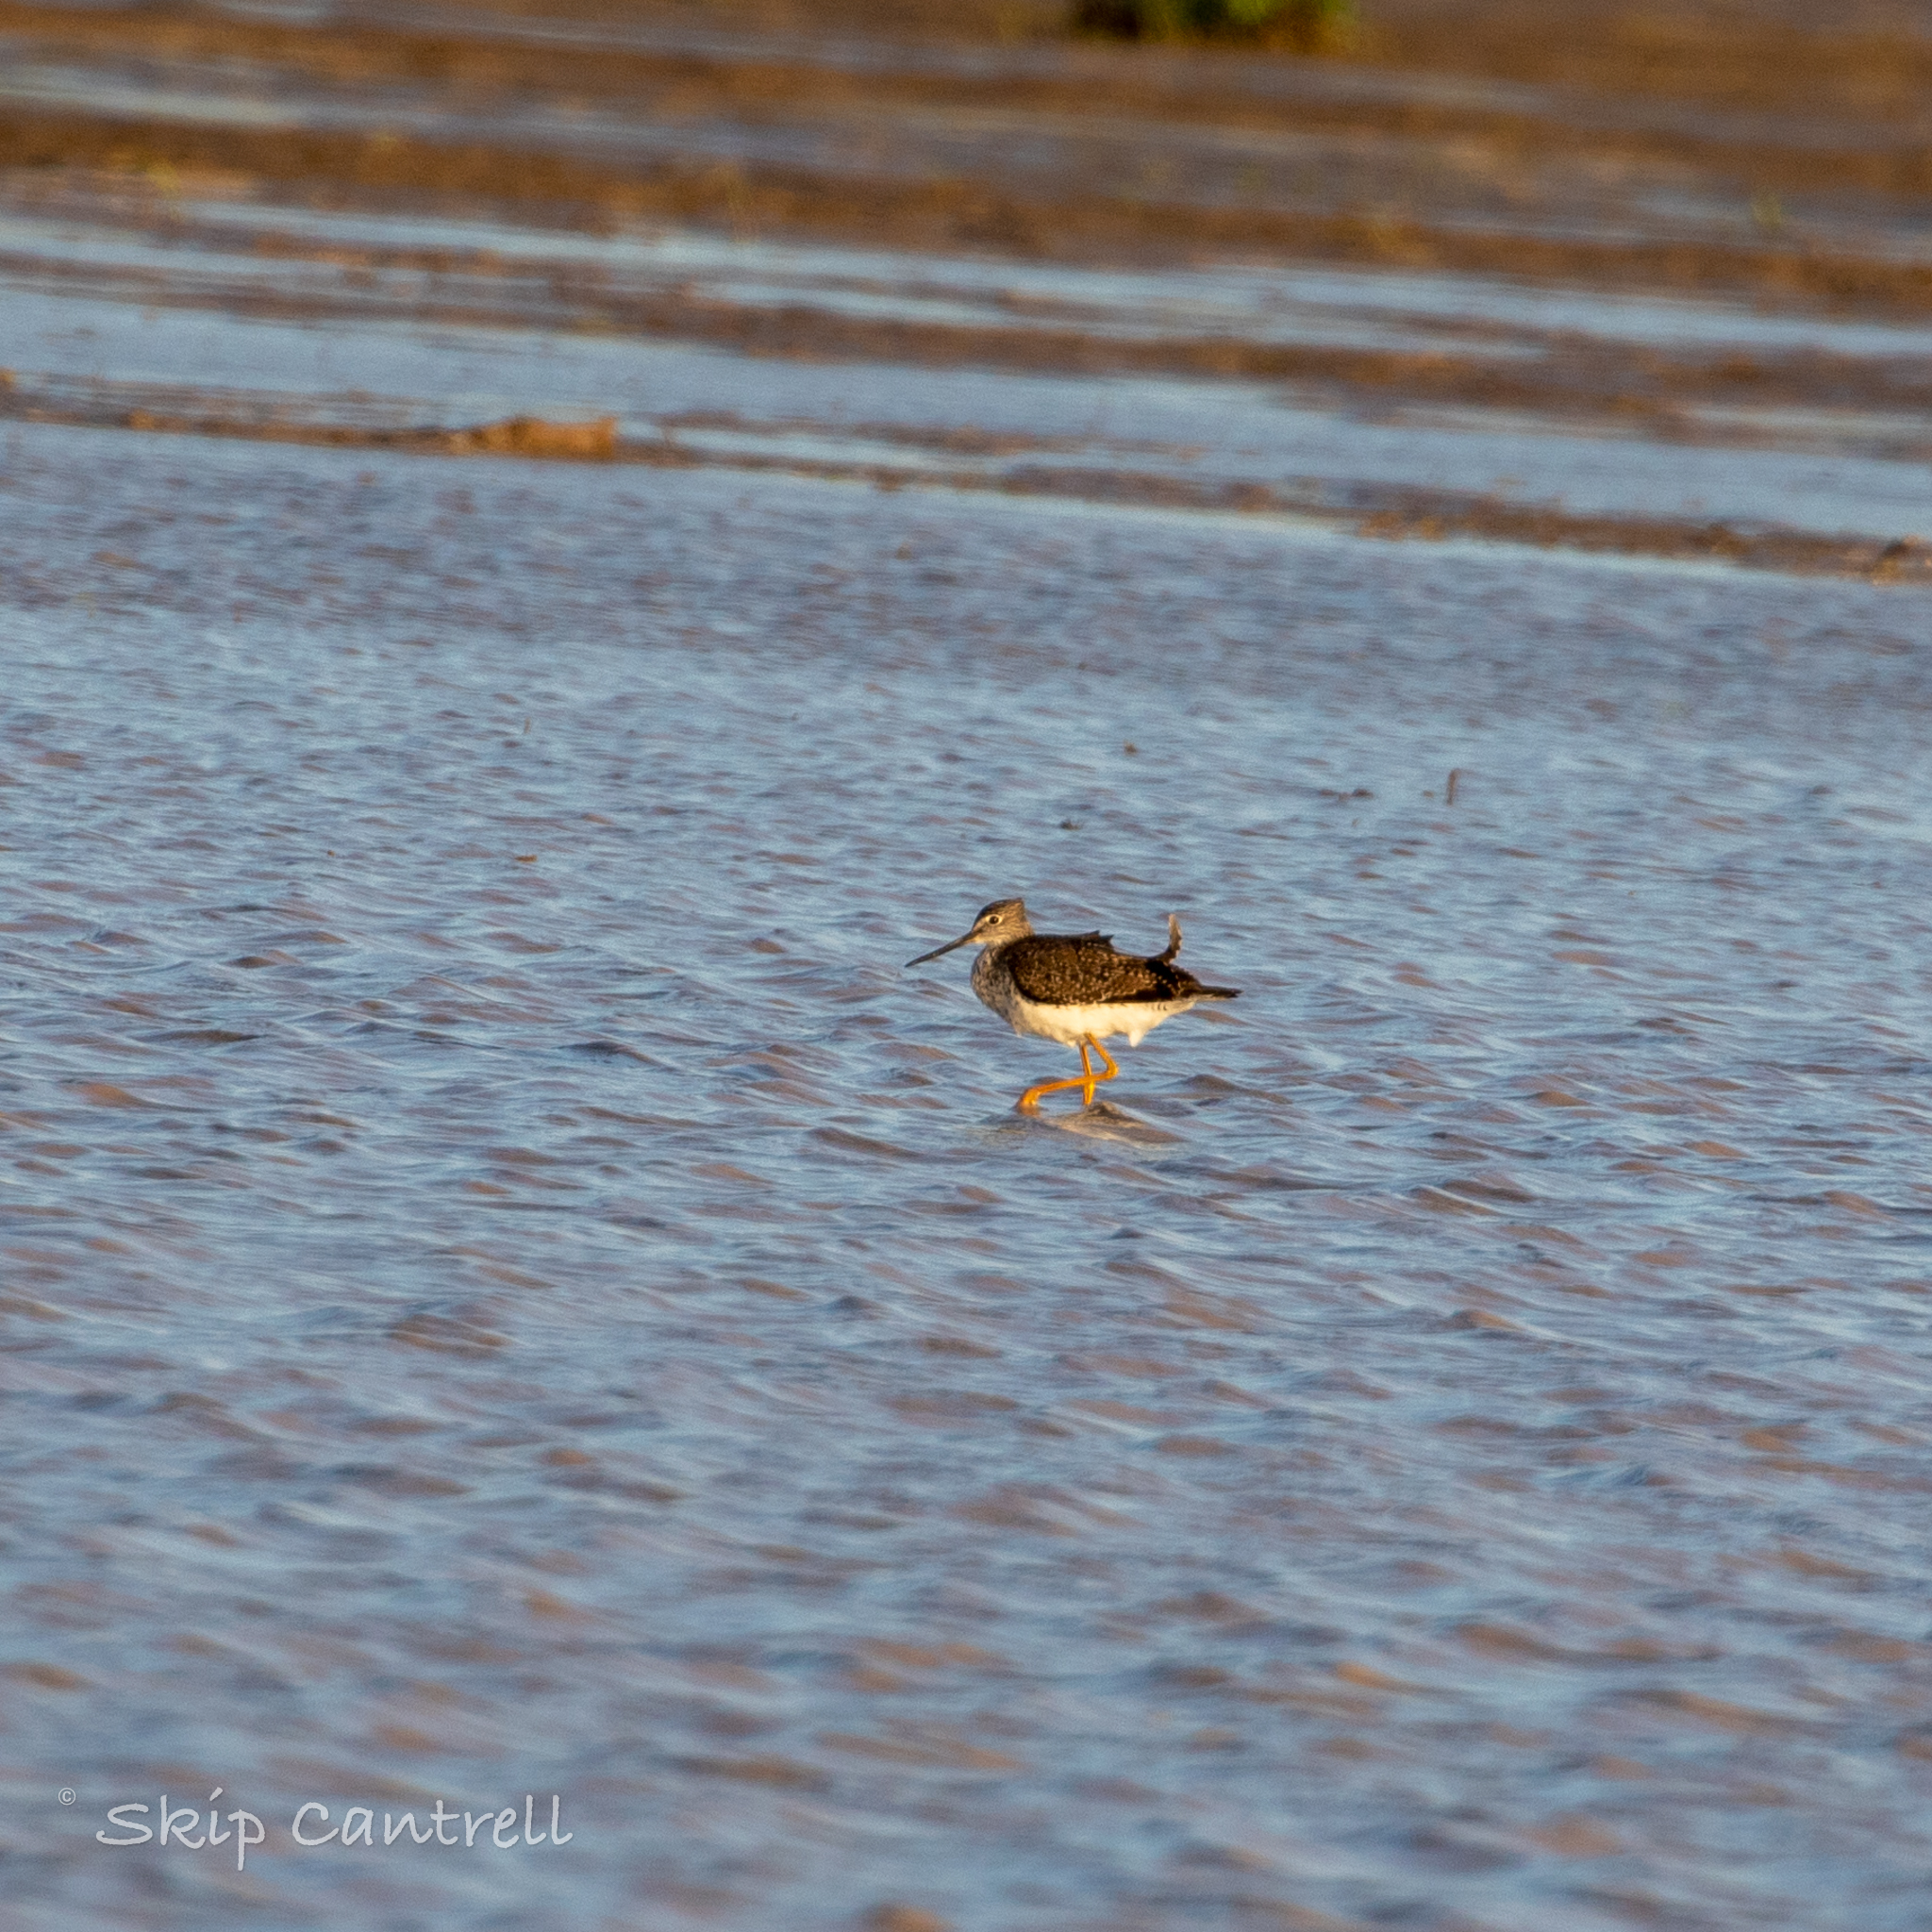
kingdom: Animalia
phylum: Chordata
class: Aves
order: Charadriiformes
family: Scolopacidae
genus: Tringa
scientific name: Tringa melanoleuca
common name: Greater yellowlegs
